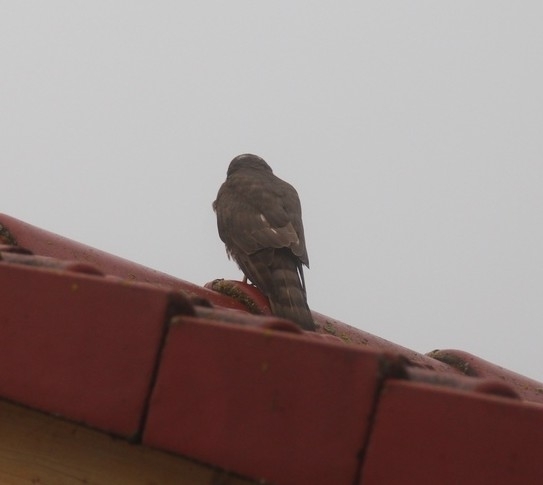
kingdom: Animalia
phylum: Chordata
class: Aves
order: Accipitriformes
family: Accipitridae
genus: Accipiter
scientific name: Accipiter nisus
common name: Eurasian sparrowhawk
